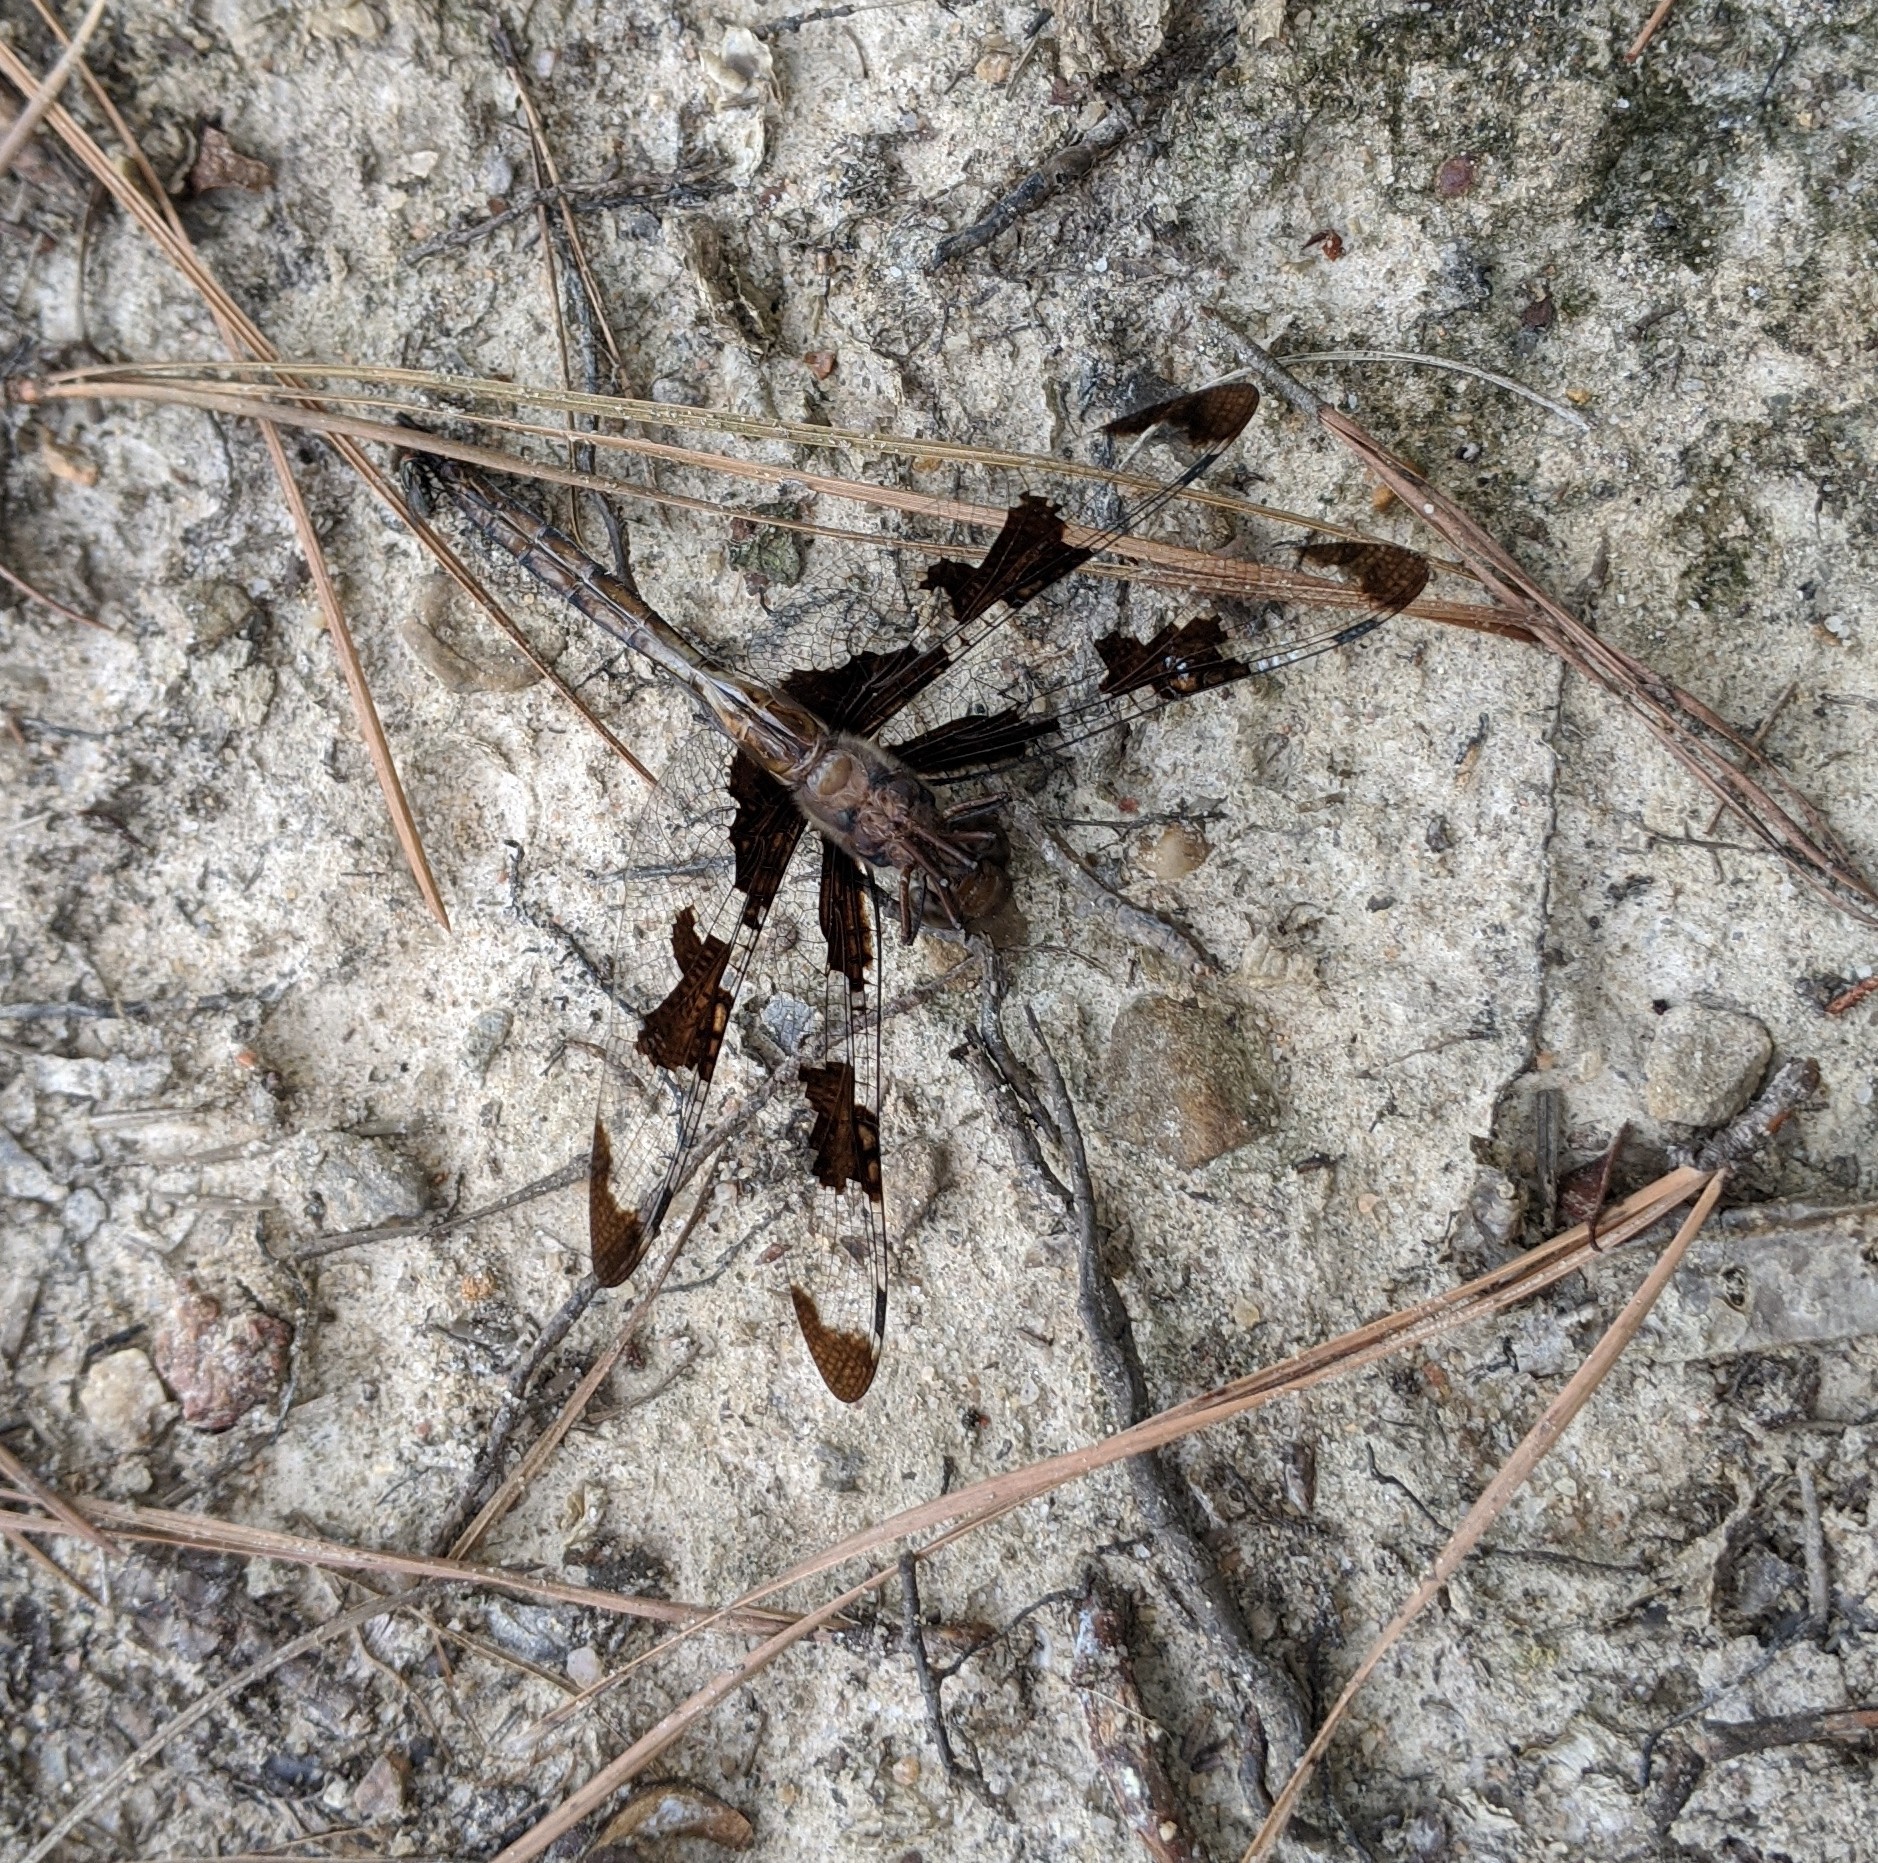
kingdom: Animalia
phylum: Arthropoda
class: Insecta
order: Odonata
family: Corduliidae
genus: Epitheca
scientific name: Epitheca princeps
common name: Prince baskettail
